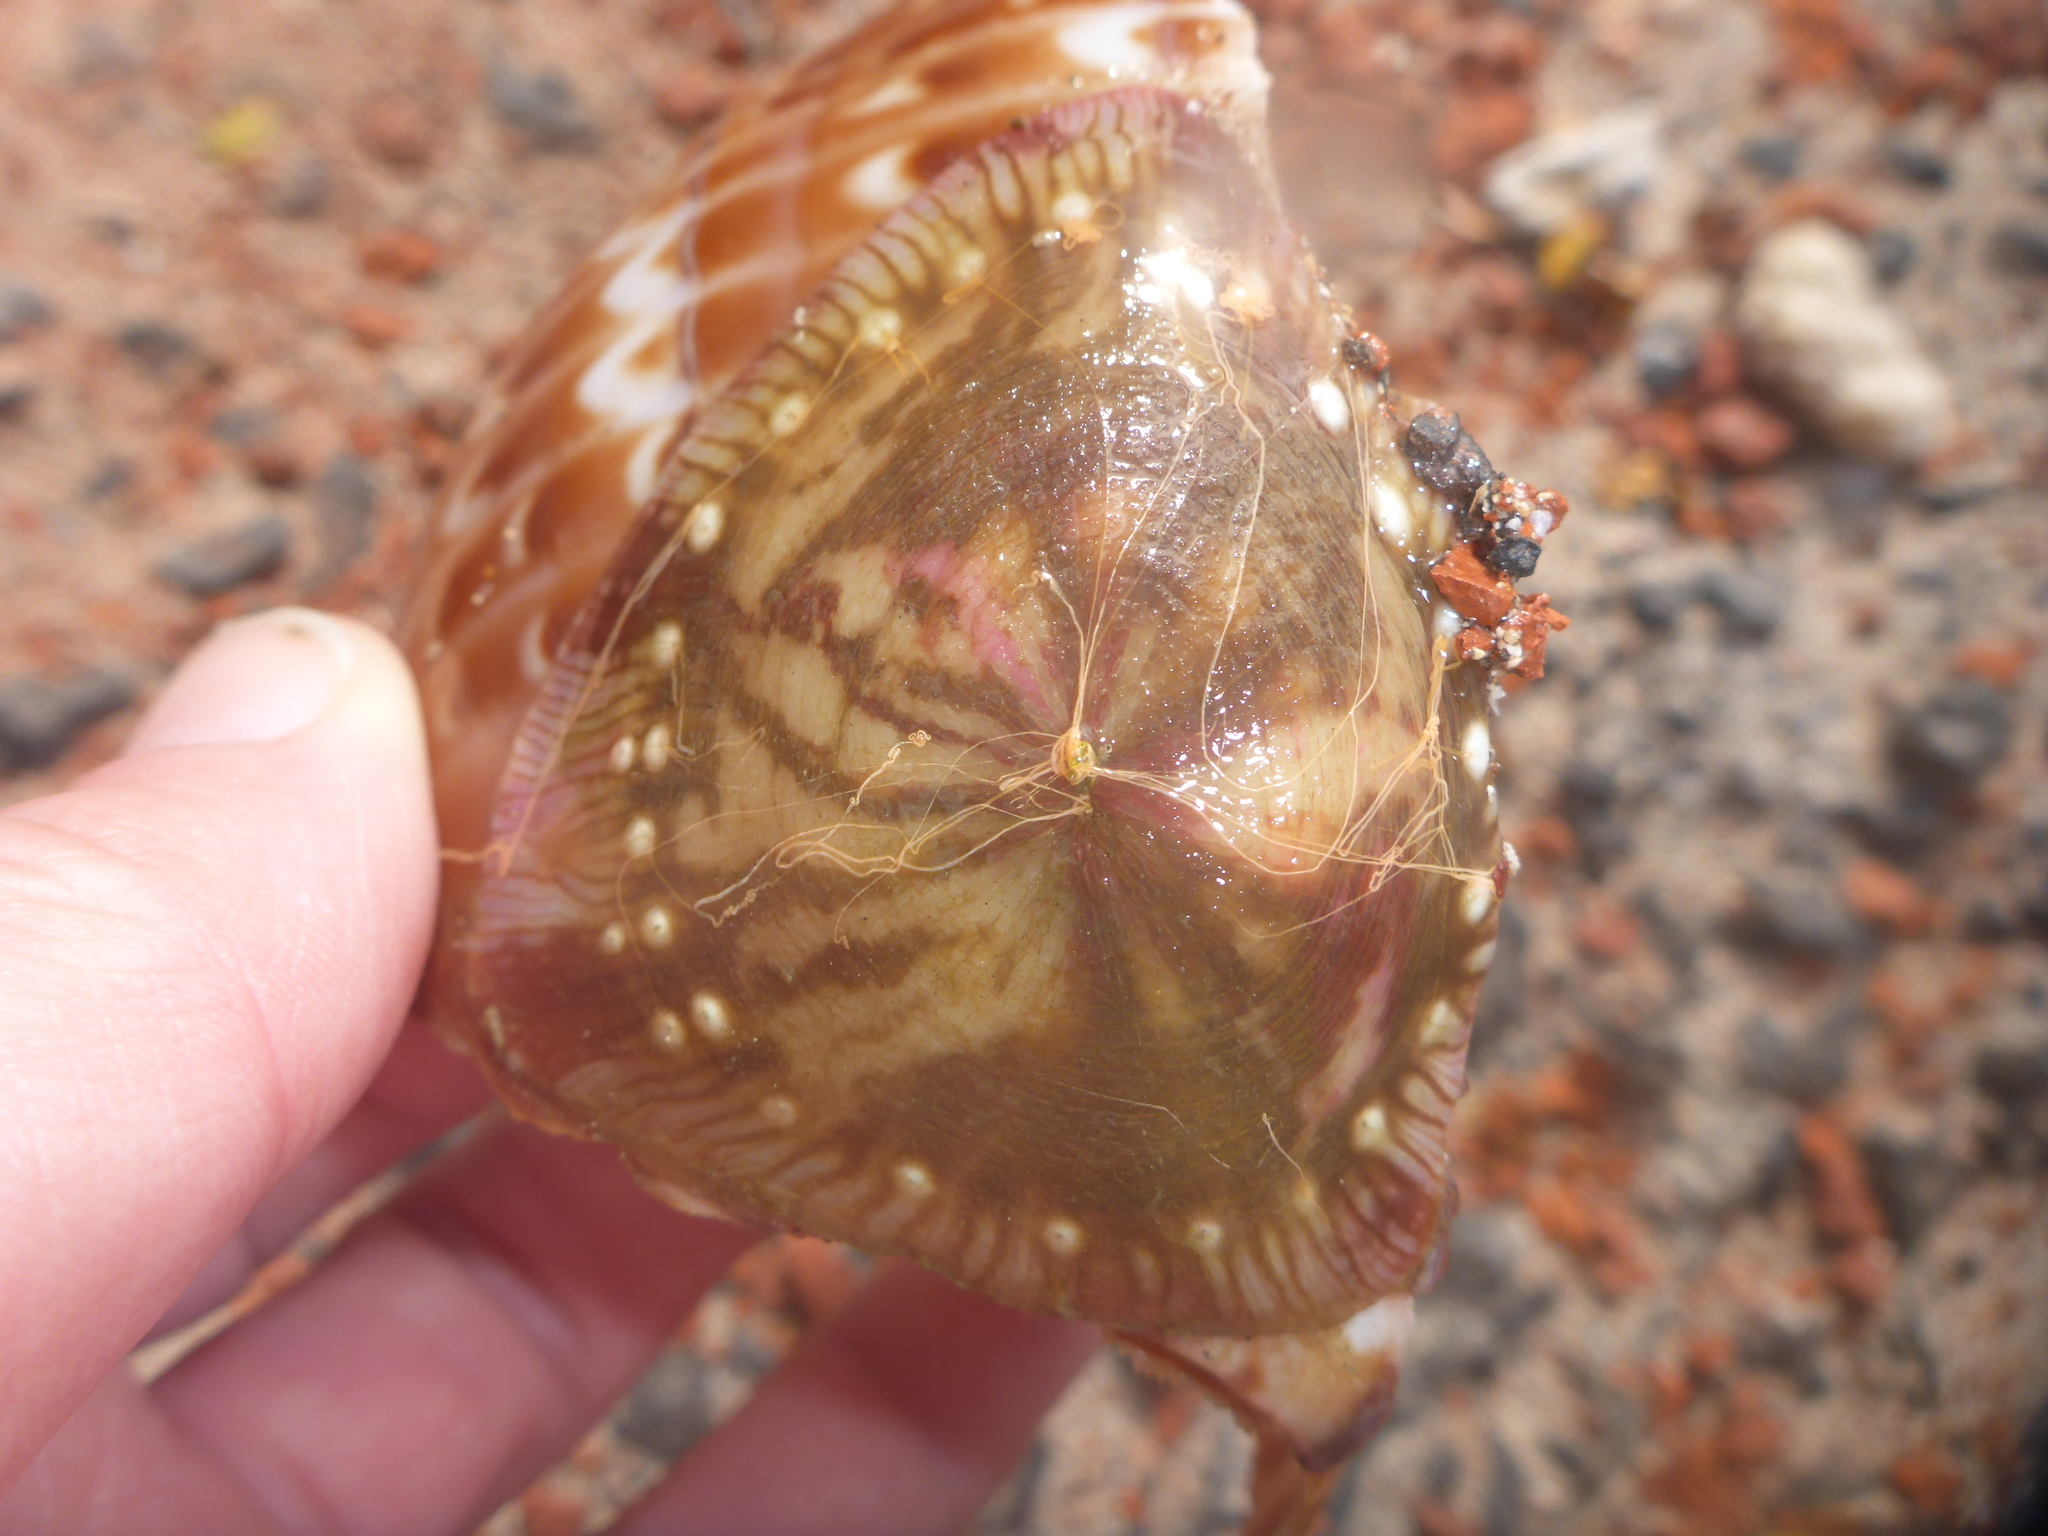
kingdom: Animalia
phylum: Cnidaria
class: Anthozoa
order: Actiniaria
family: Hormathiidae
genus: Calliactis
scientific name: Calliactis polypus
